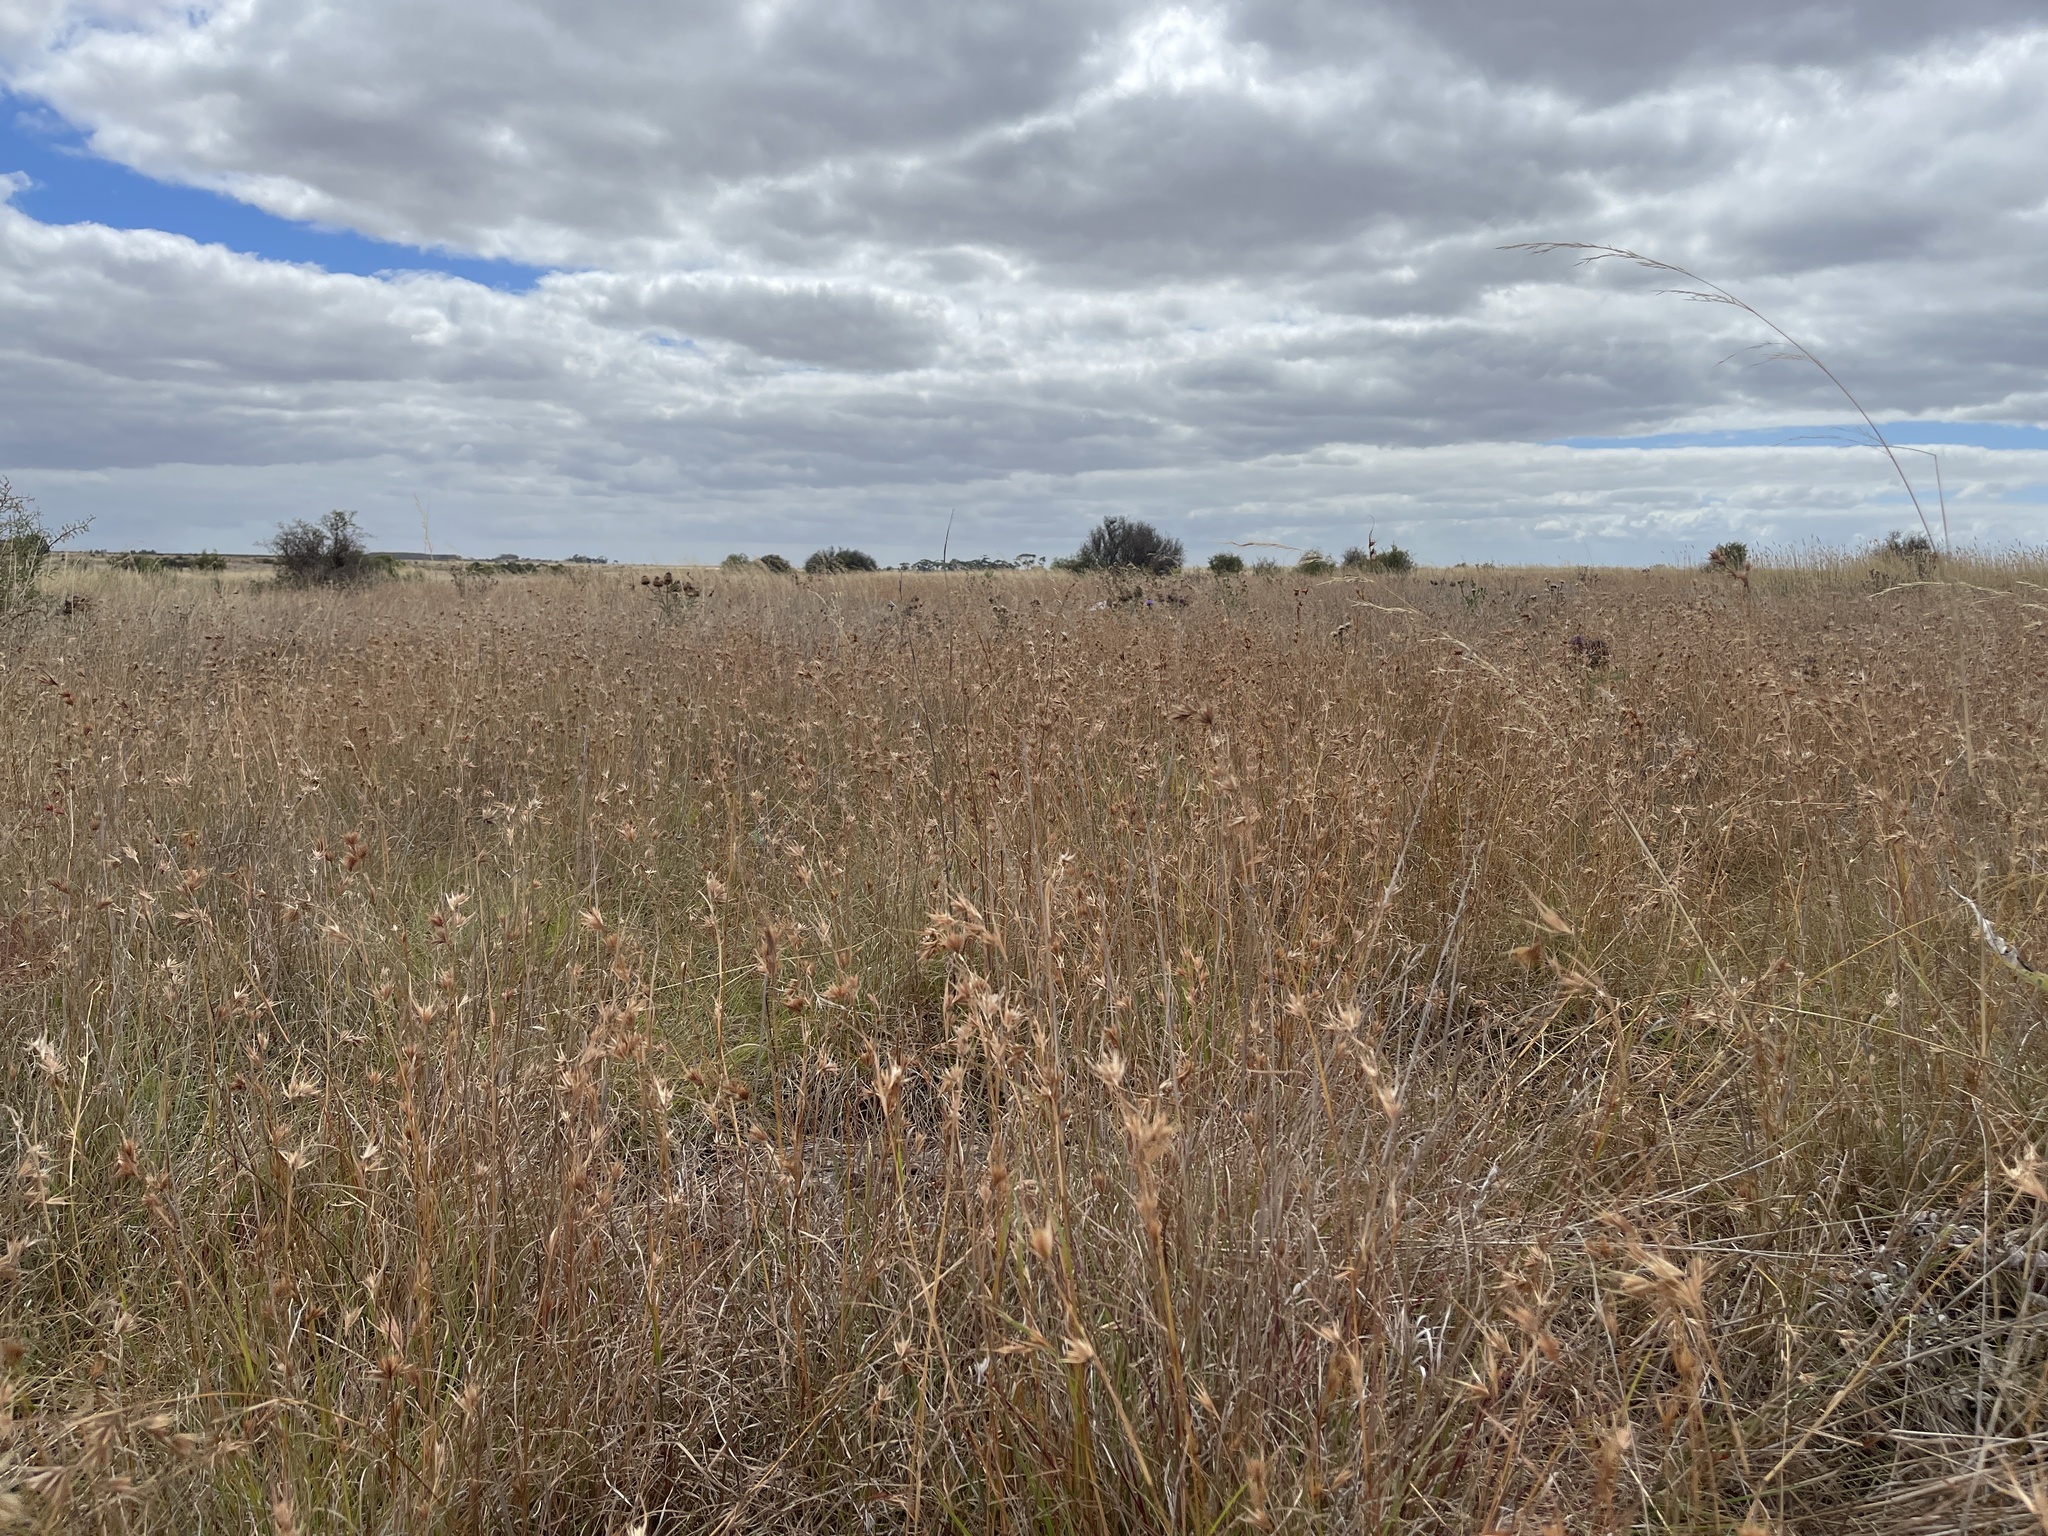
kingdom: Plantae
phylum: Tracheophyta
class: Liliopsida
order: Poales
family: Poaceae
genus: Themeda
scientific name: Themeda triandra
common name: Kangaroo grass
